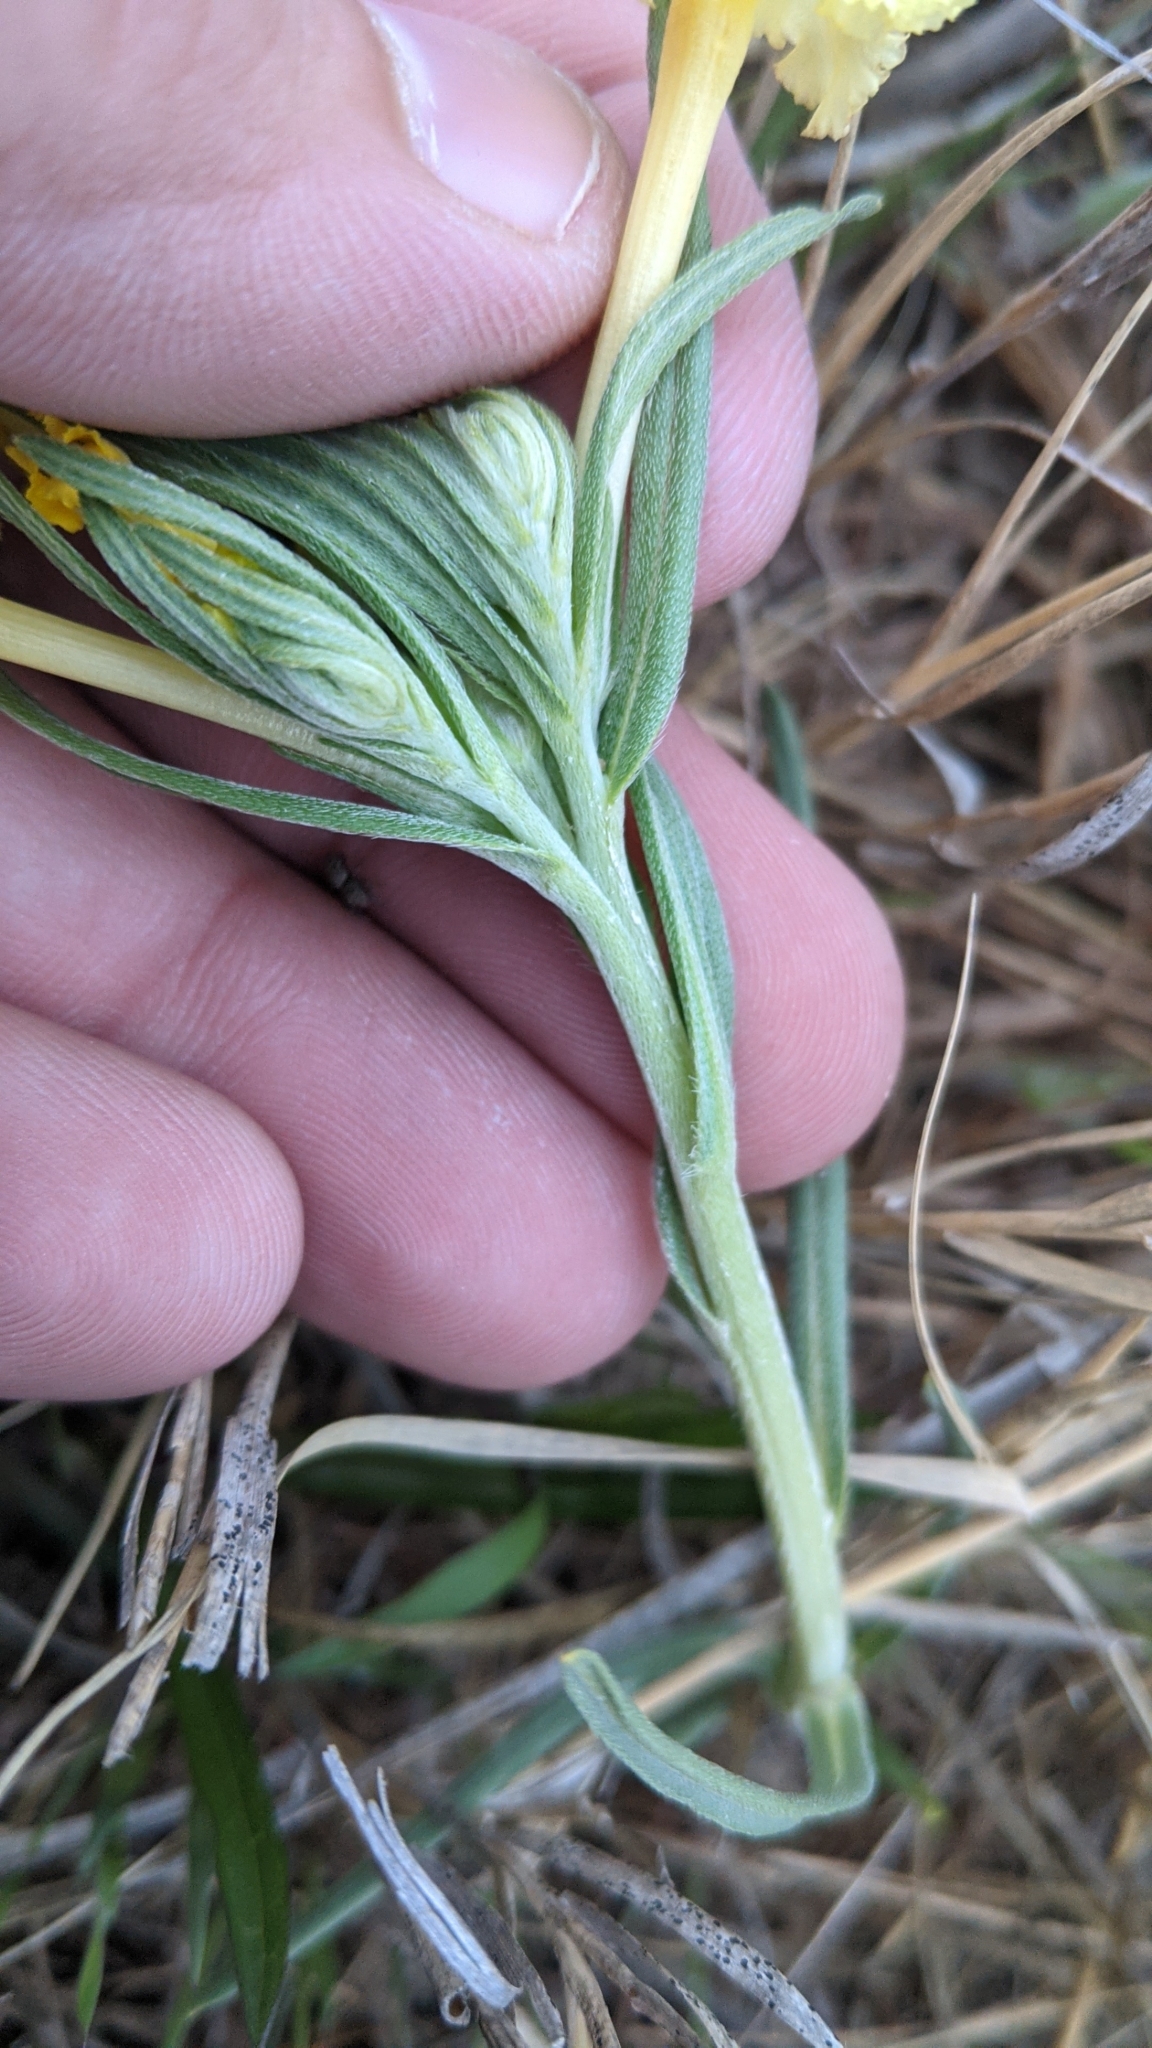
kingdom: Plantae
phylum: Tracheophyta
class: Magnoliopsida
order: Boraginales
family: Boraginaceae
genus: Lithospermum
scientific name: Lithospermum incisum
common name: Fringed gromwell
